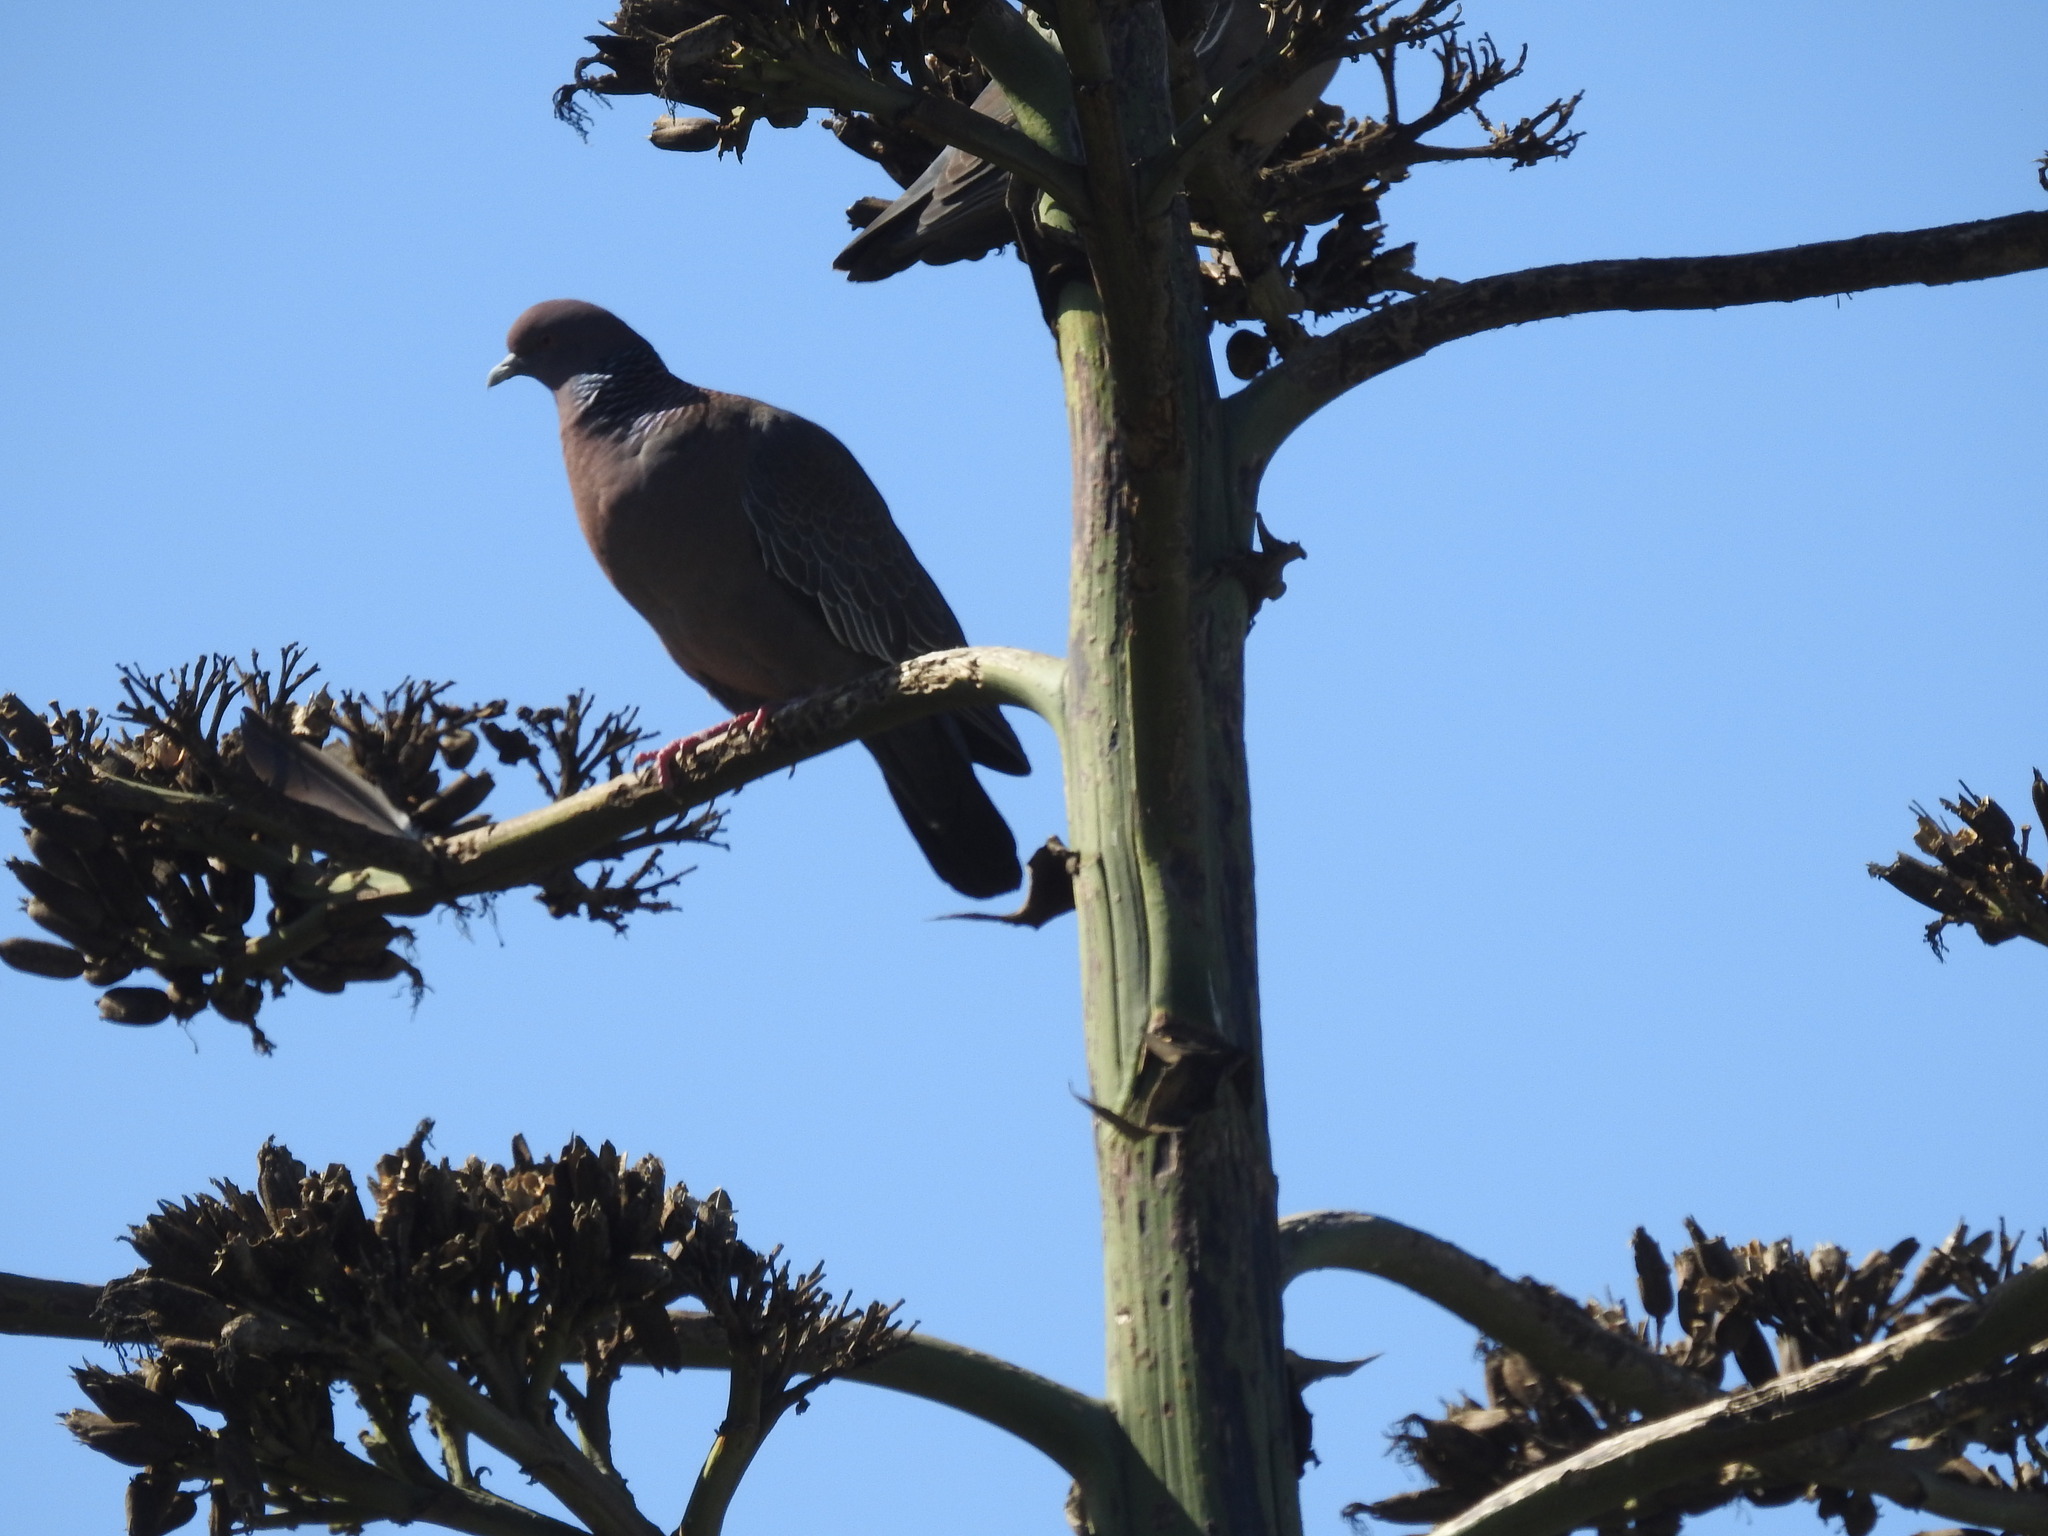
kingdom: Animalia
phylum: Chordata
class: Aves
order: Columbiformes
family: Columbidae
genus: Patagioenas
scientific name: Patagioenas picazuro
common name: Picazuro pigeon
